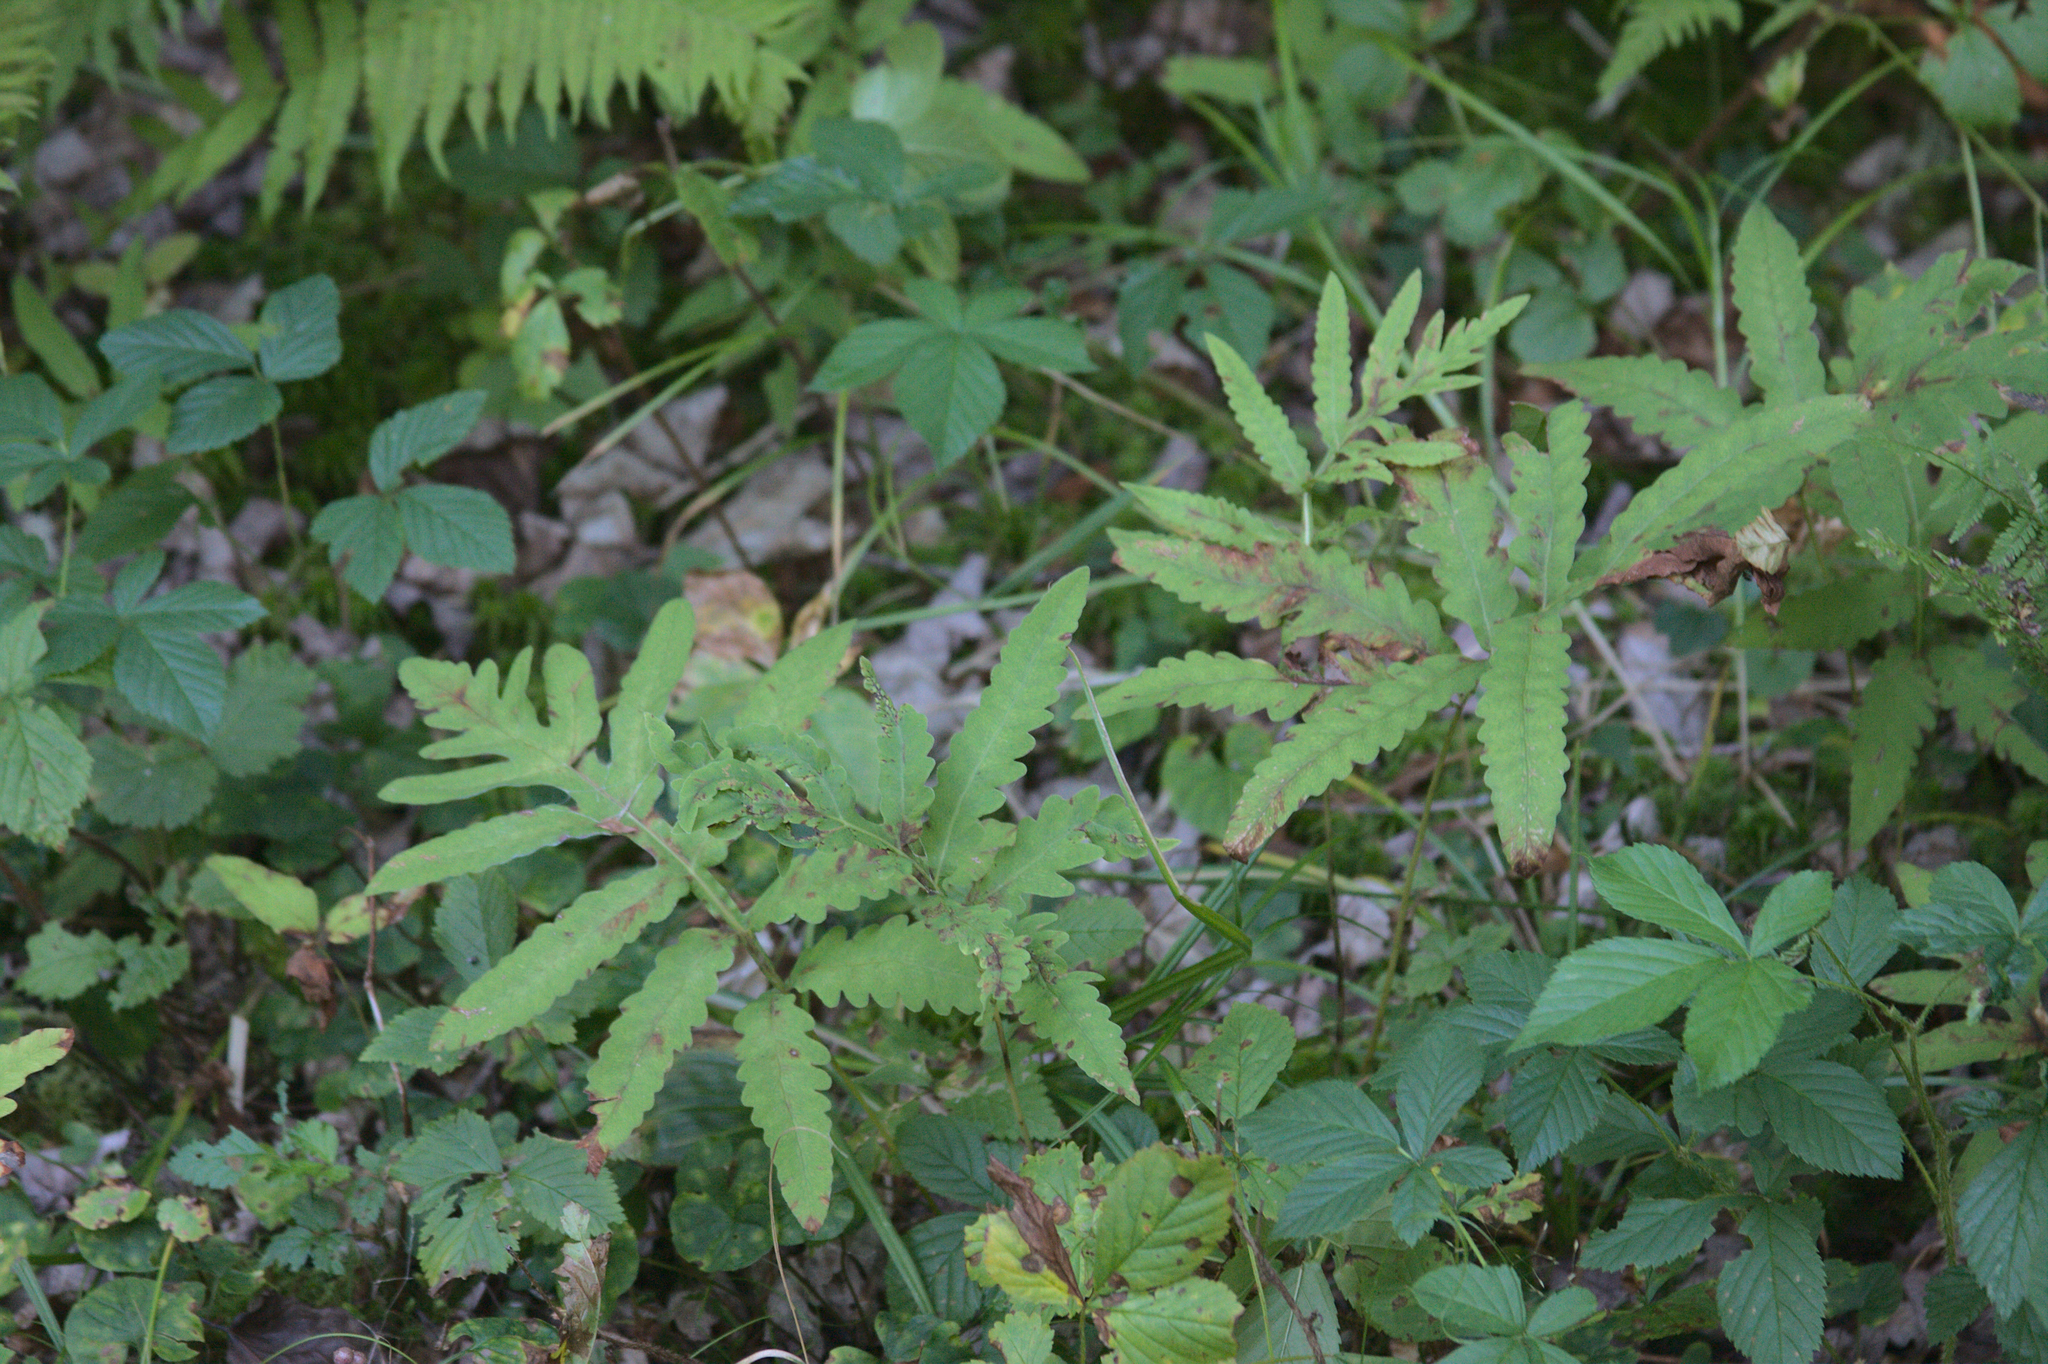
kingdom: Plantae
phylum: Tracheophyta
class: Polypodiopsida
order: Polypodiales
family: Onocleaceae
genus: Onoclea
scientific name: Onoclea sensibilis
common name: Sensitive fern
